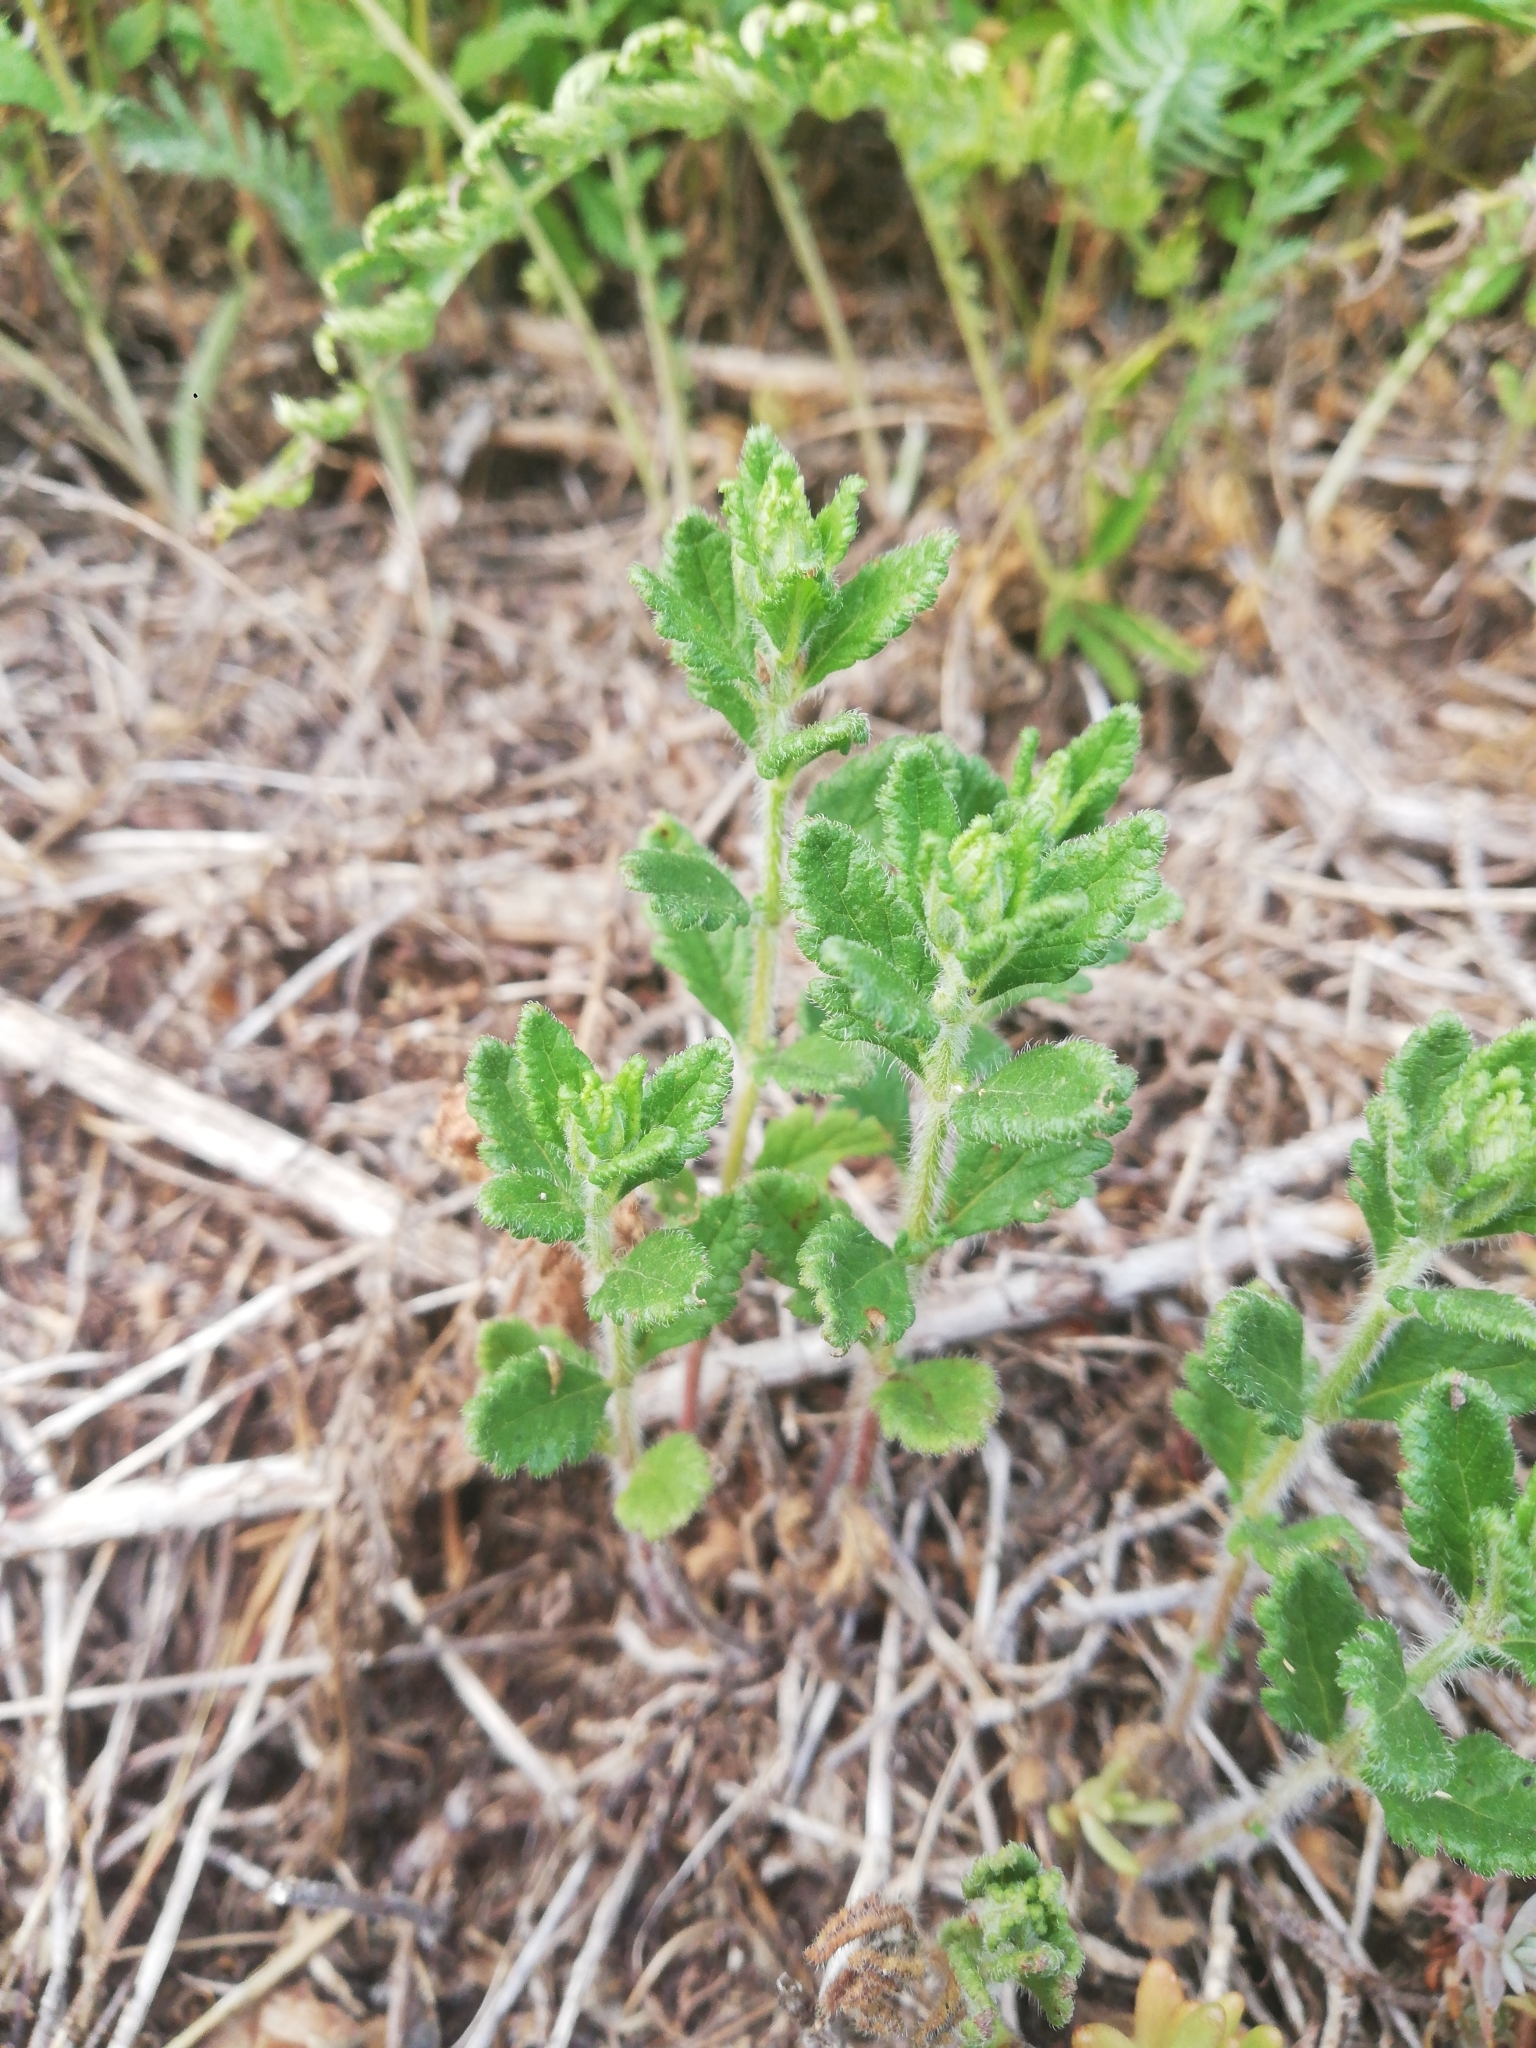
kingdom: Plantae
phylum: Tracheophyta
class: Magnoliopsida
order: Lamiales
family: Lamiaceae
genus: Teucrium
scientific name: Teucrium chamaedrys
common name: Wall germander
